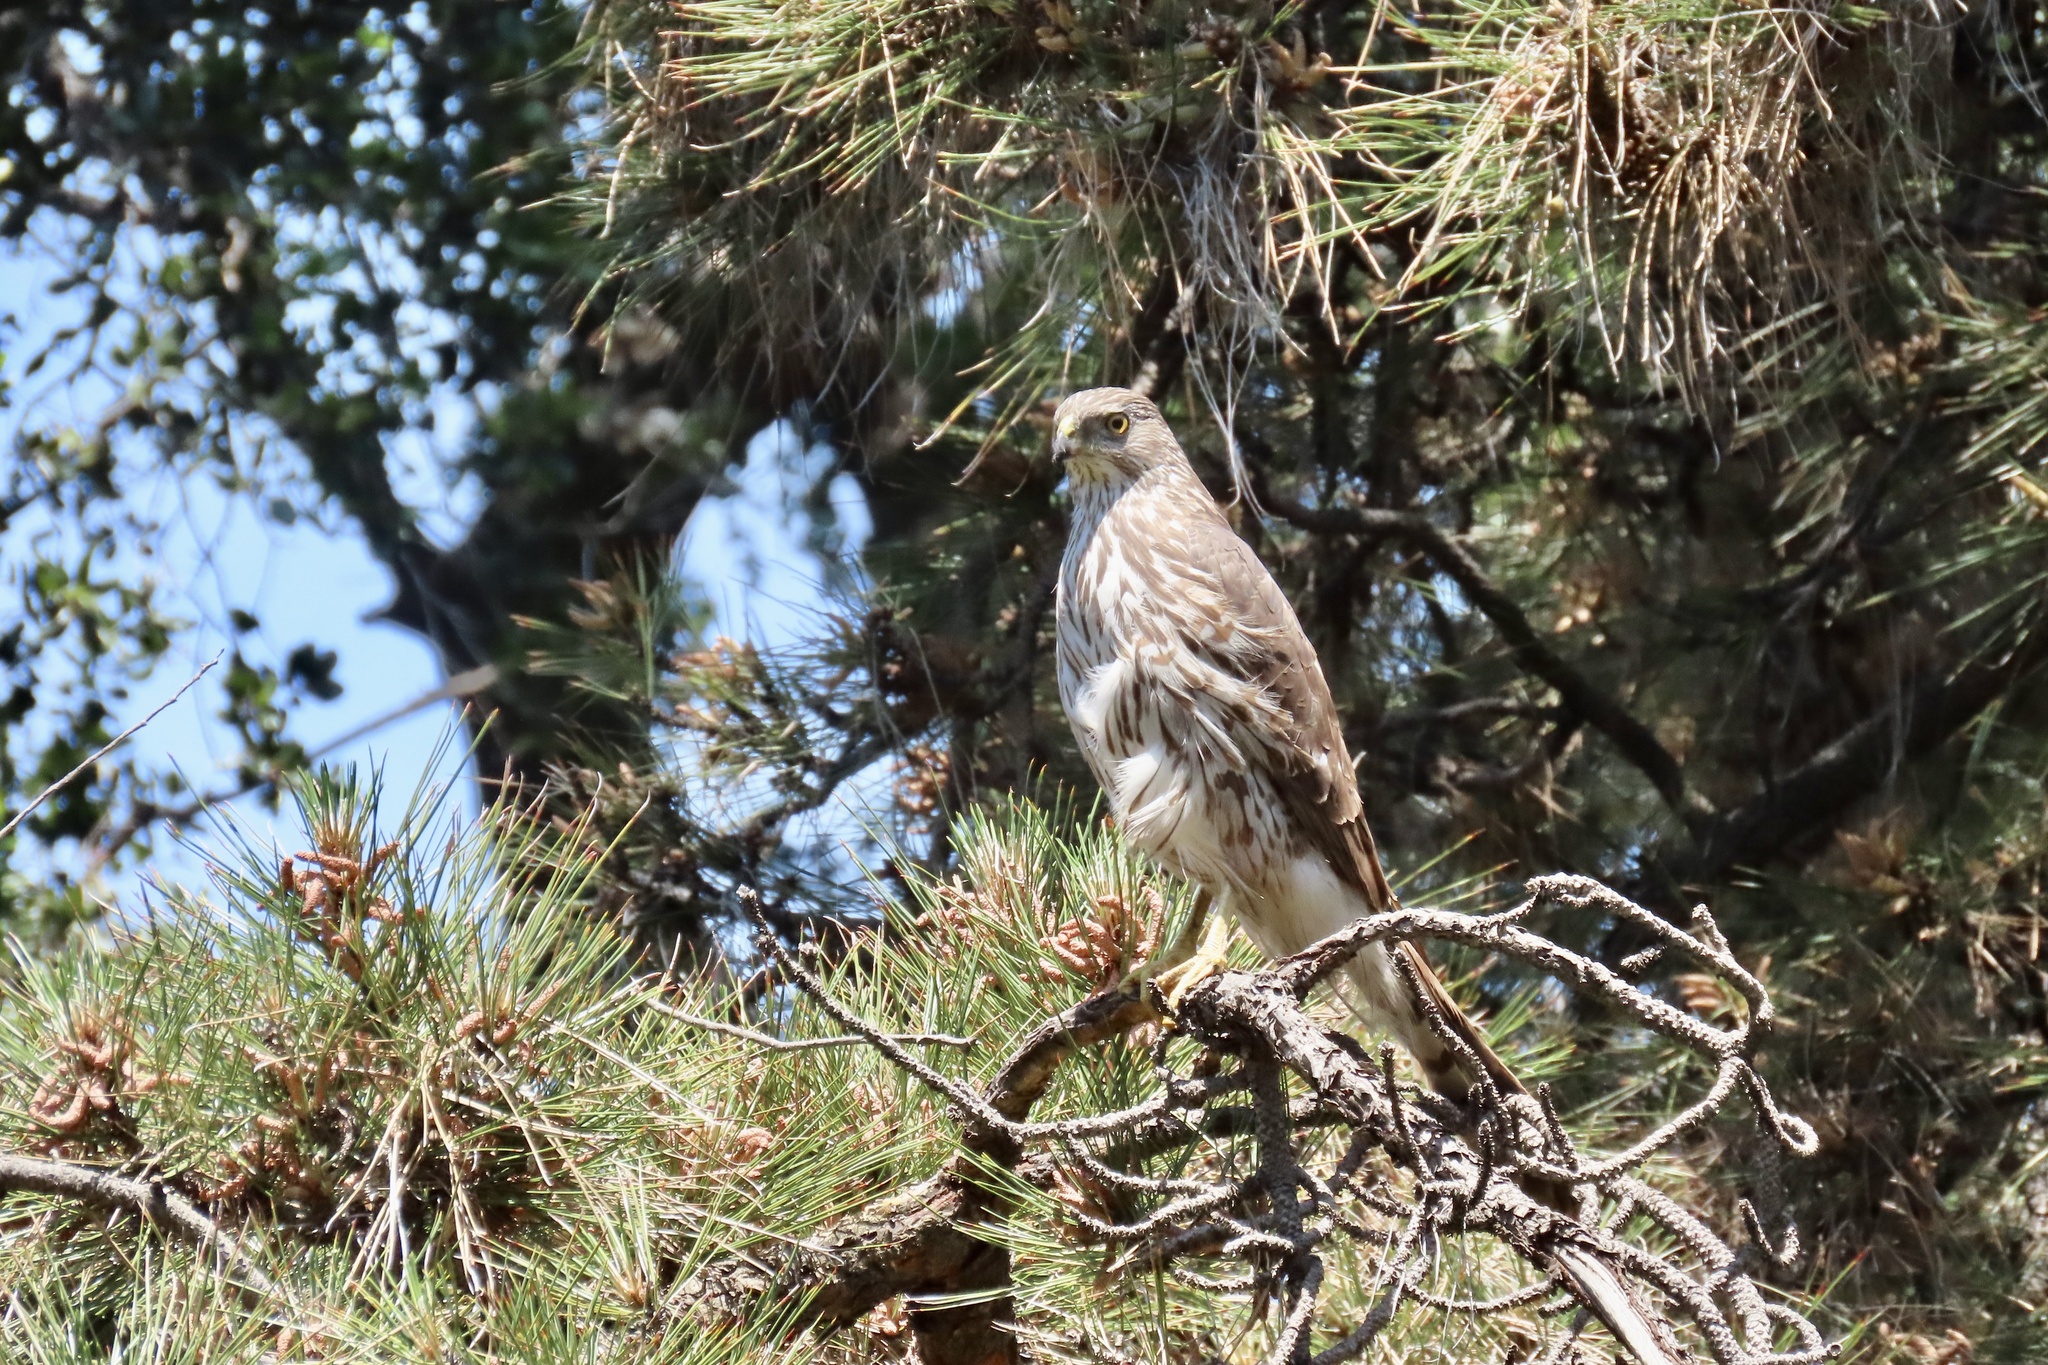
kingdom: Animalia
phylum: Chordata
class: Aves
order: Accipitriformes
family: Accipitridae
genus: Accipiter
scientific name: Accipiter cooperii
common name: Cooper's hawk
